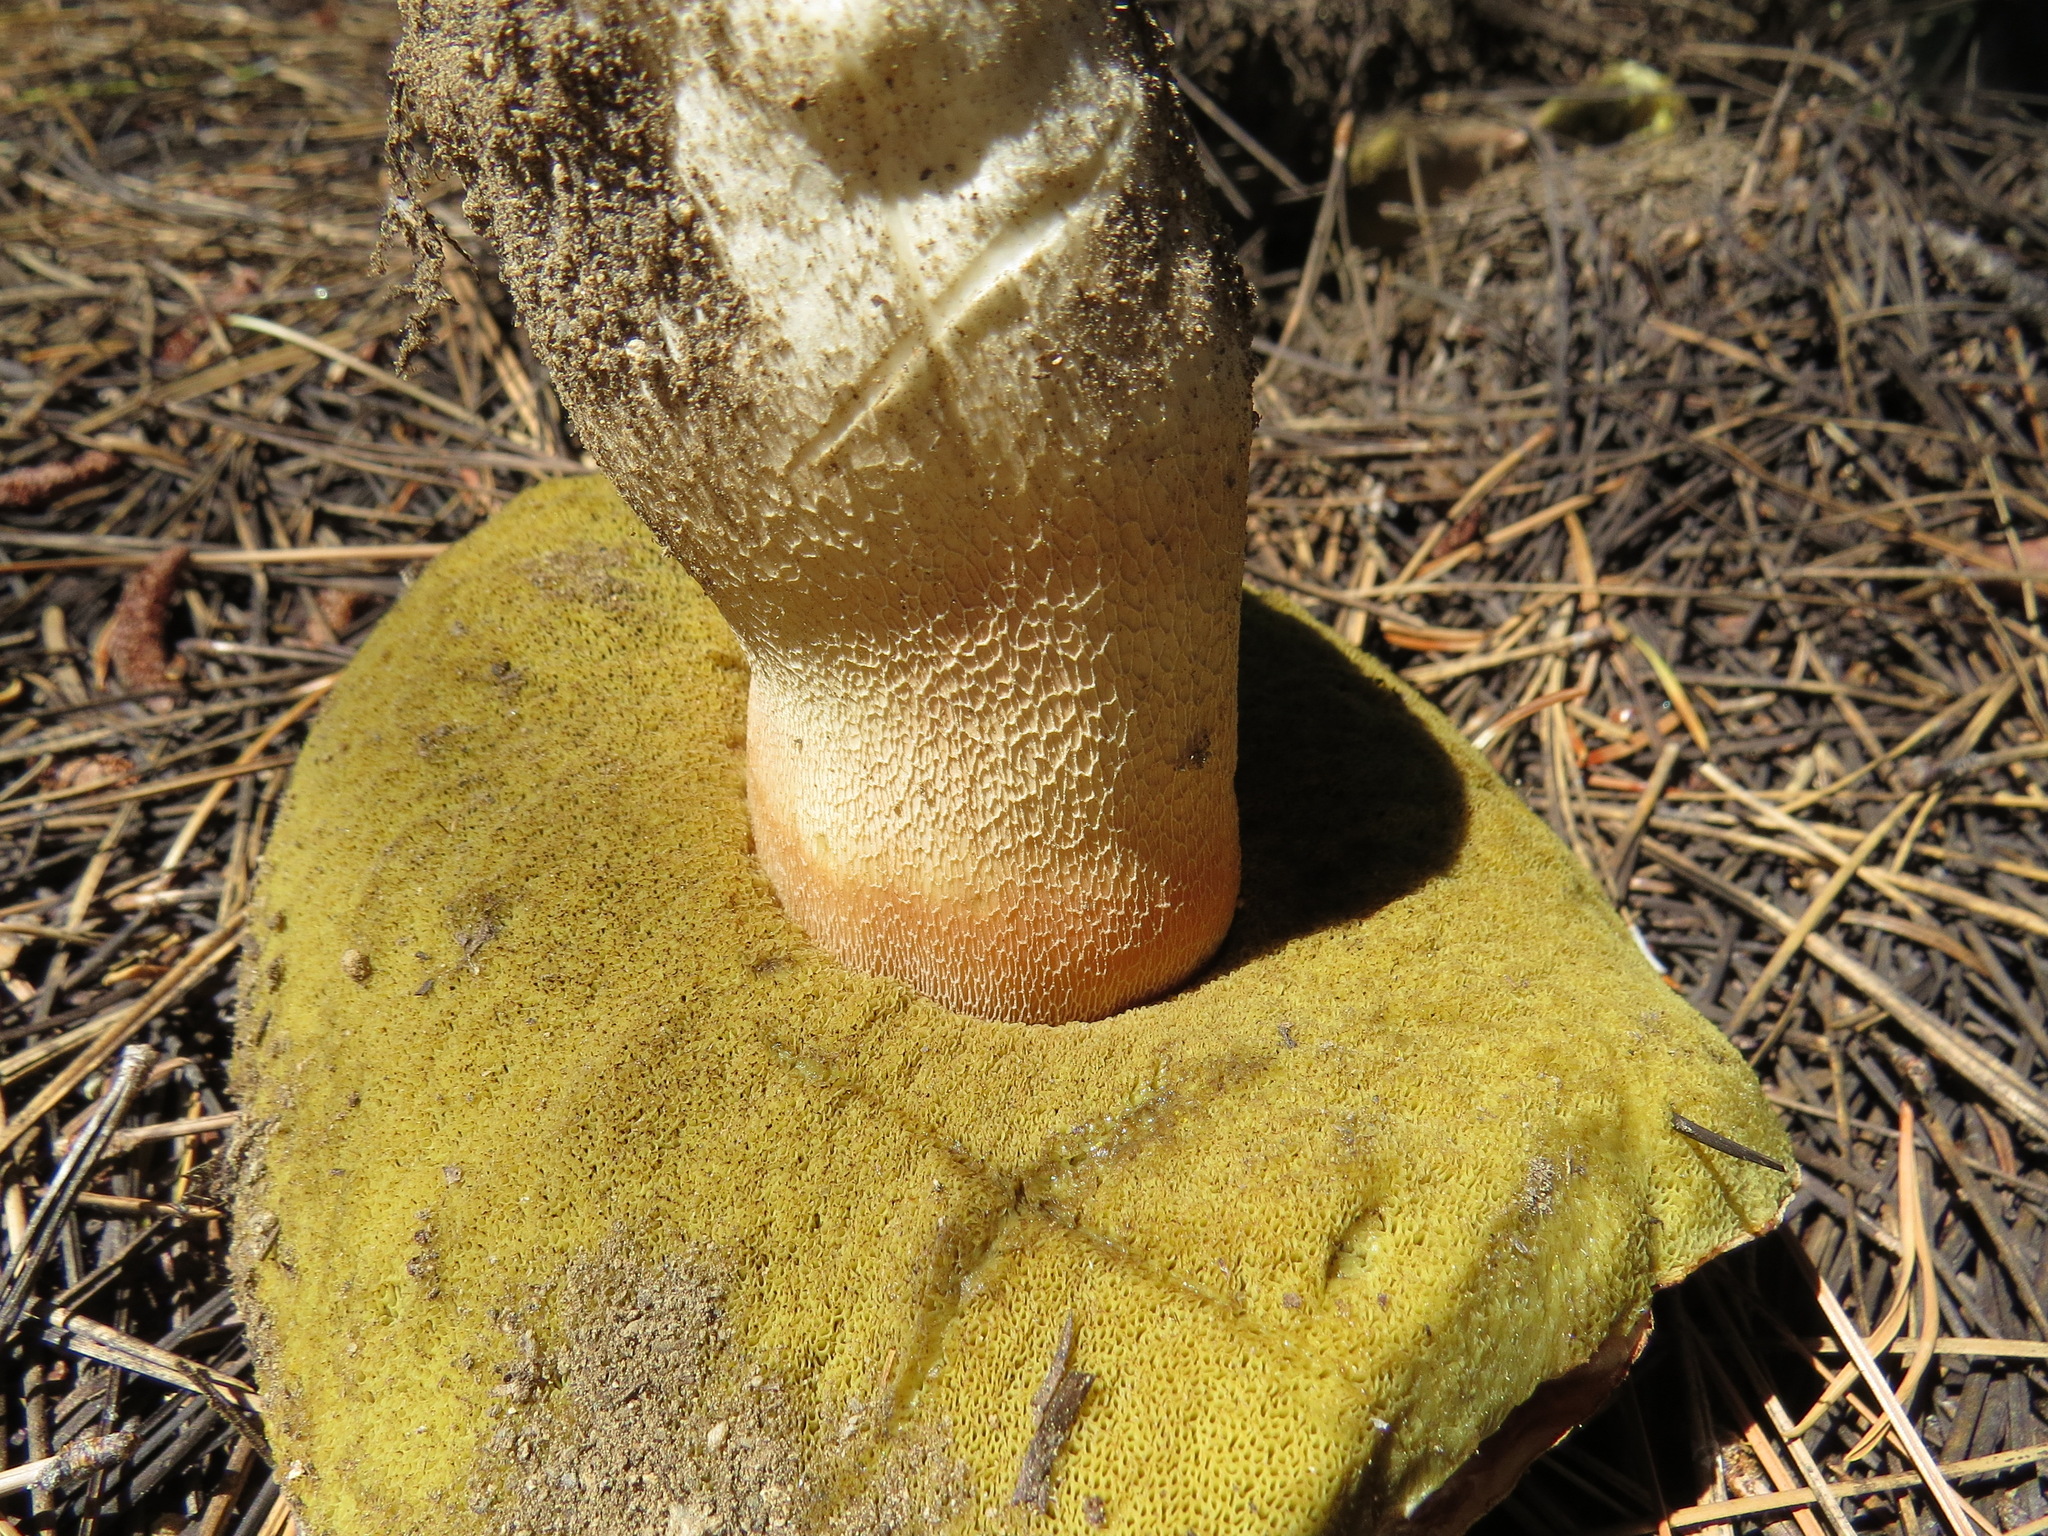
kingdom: Fungi
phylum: Basidiomycota
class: Agaricomycetes
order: Boletales
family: Boletaceae
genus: Boletus
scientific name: Boletus rex-veris
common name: Spring king
